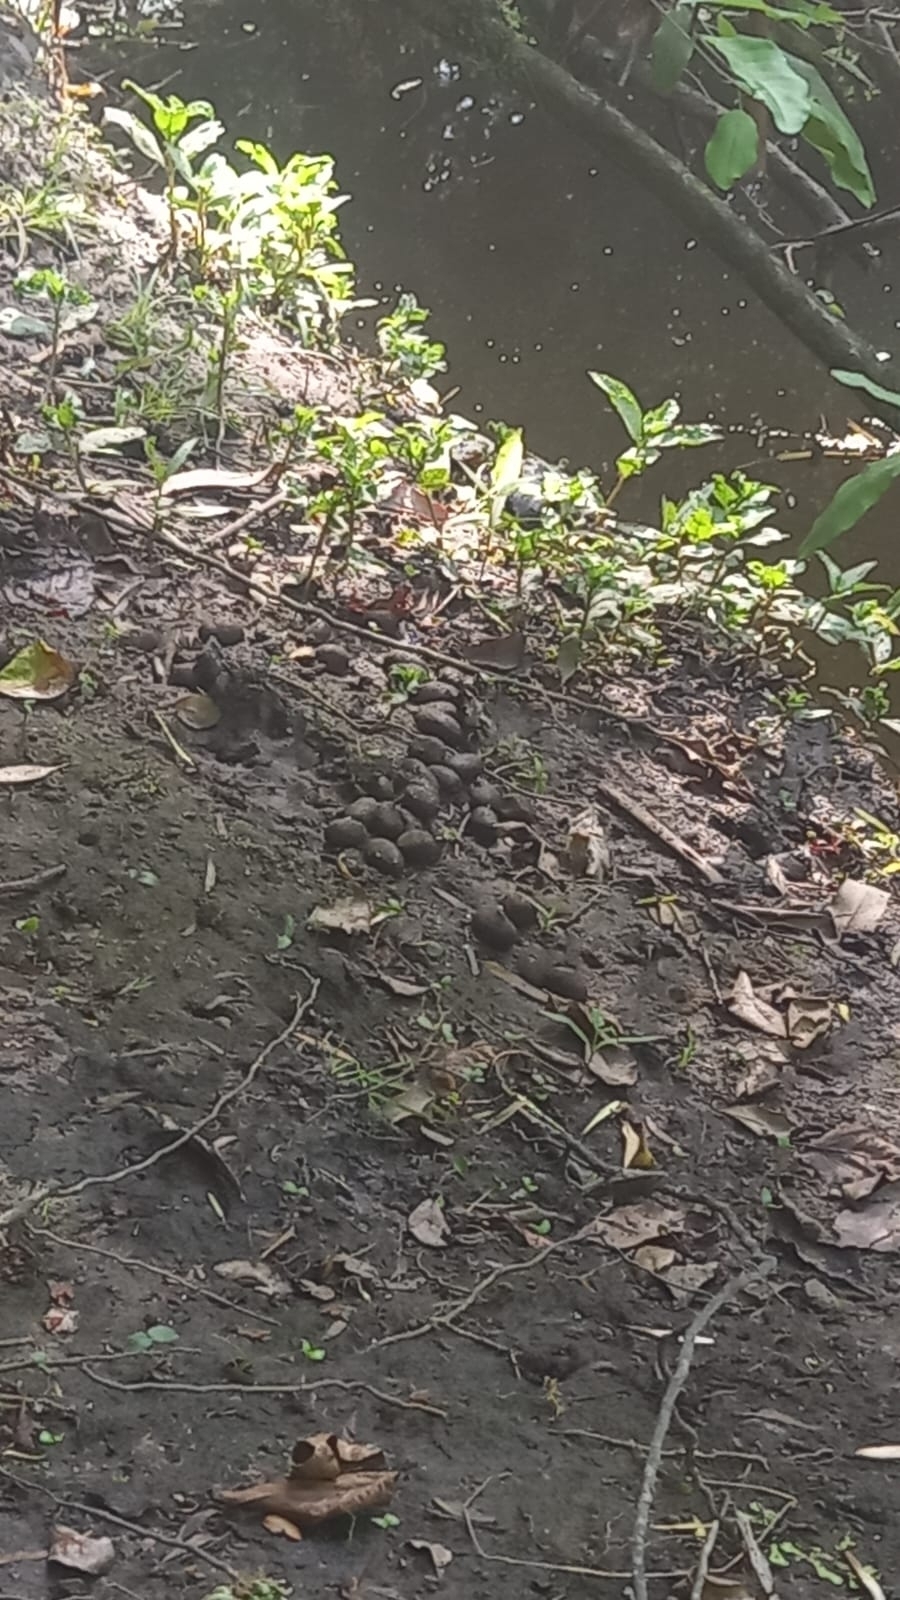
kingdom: Animalia
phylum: Chordata
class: Mammalia
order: Rodentia
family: Caviidae
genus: Hydrochoerus
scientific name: Hydrochoerus hydrochaeris
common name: Capybara
